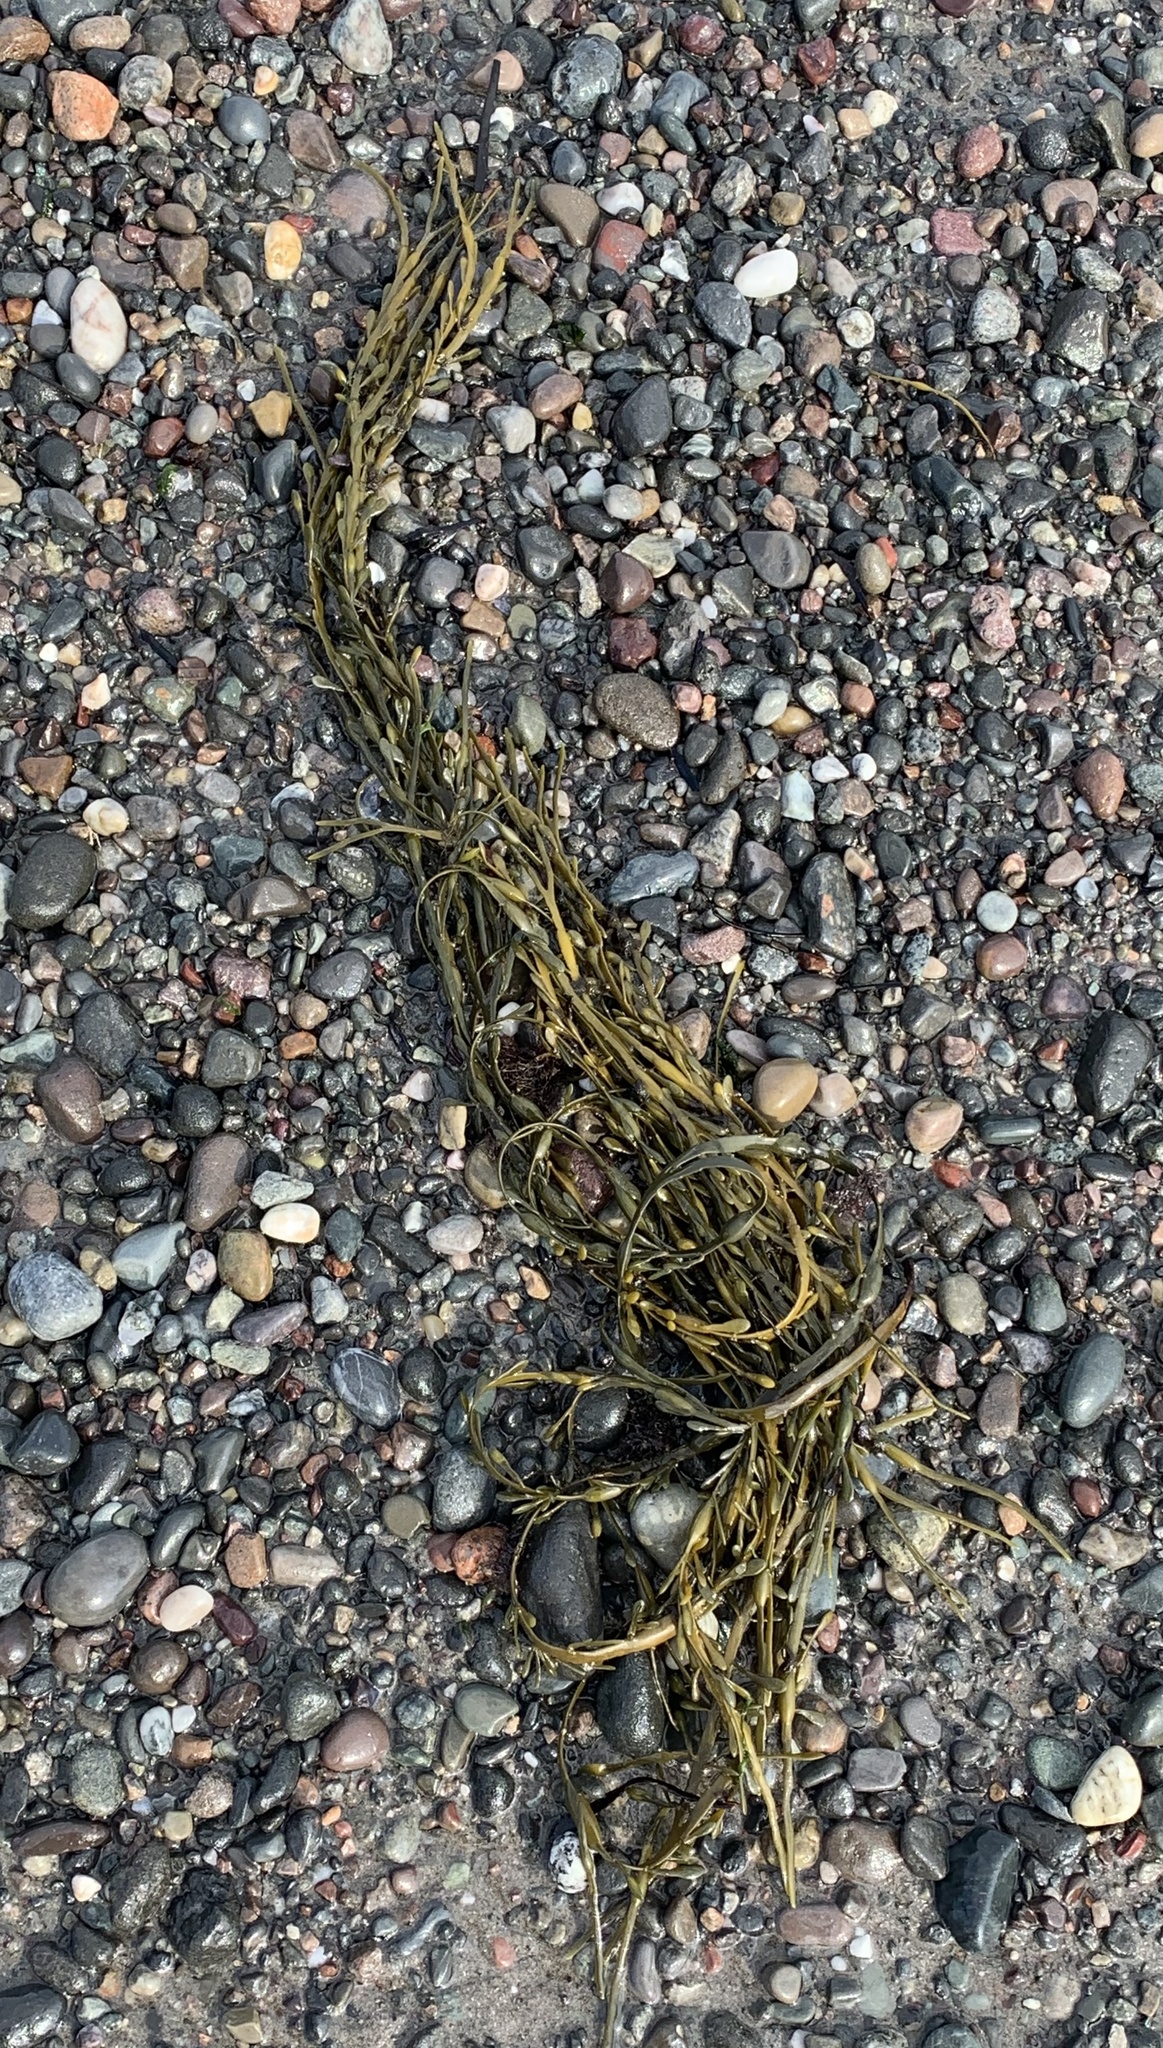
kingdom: Chromista
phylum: Ochrophyta
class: Phaeophyceae
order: Fucales
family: Fucaceae
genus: Ascophyllum
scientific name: Ascophyllum nodosum
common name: Knotted wrack
